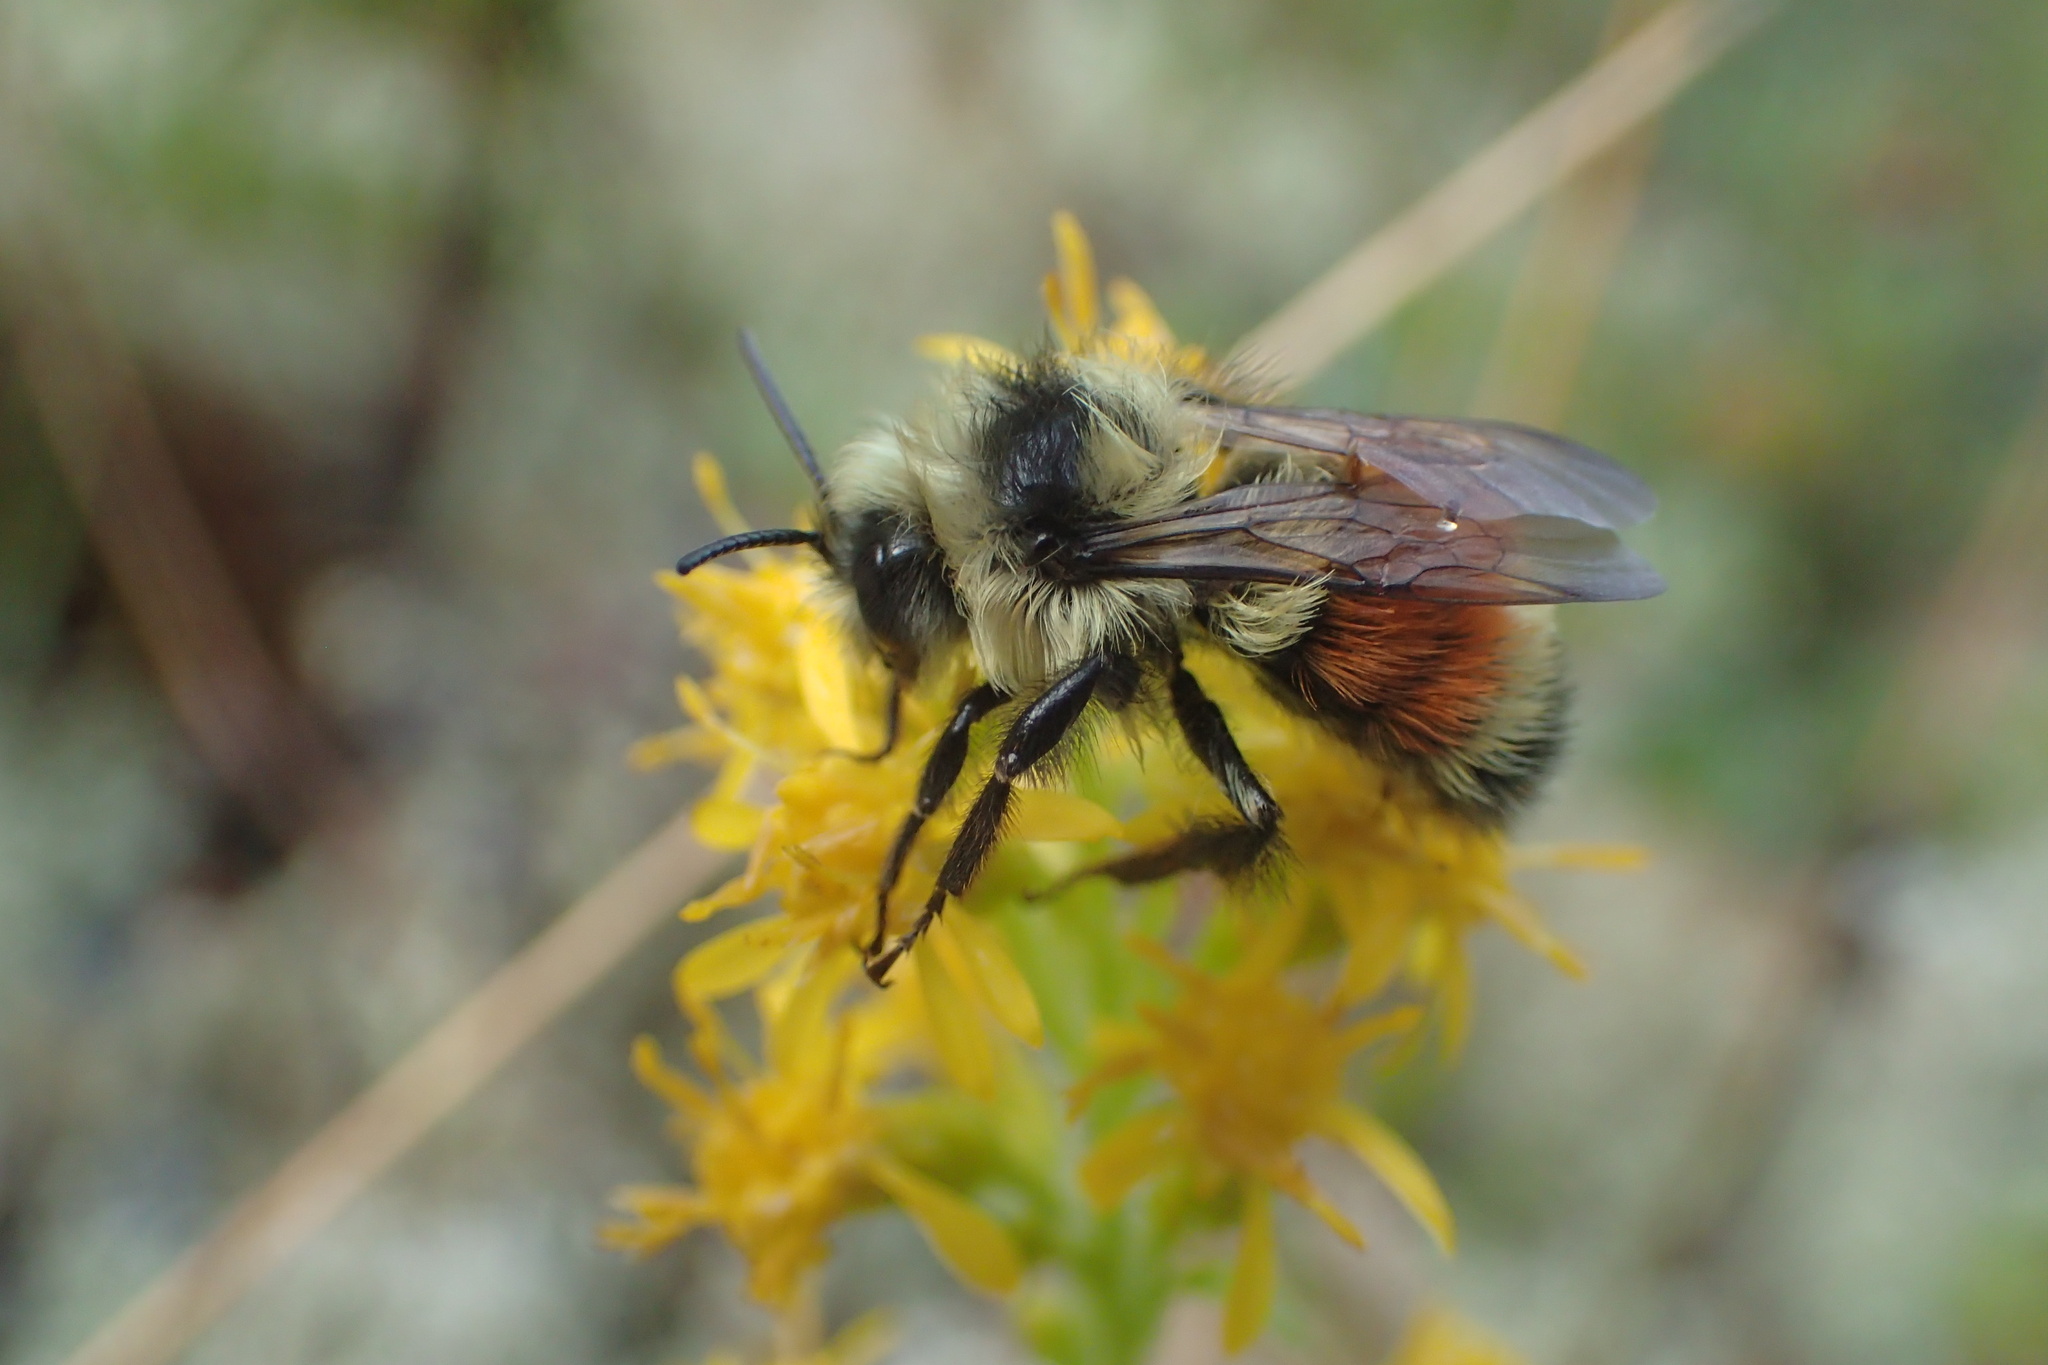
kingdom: Animalia
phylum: Arthropoda
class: Insecta
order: Hymenoptera
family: Apidae
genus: Bombus
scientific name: Bombus ternarius
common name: Tri-colored bumble bee
